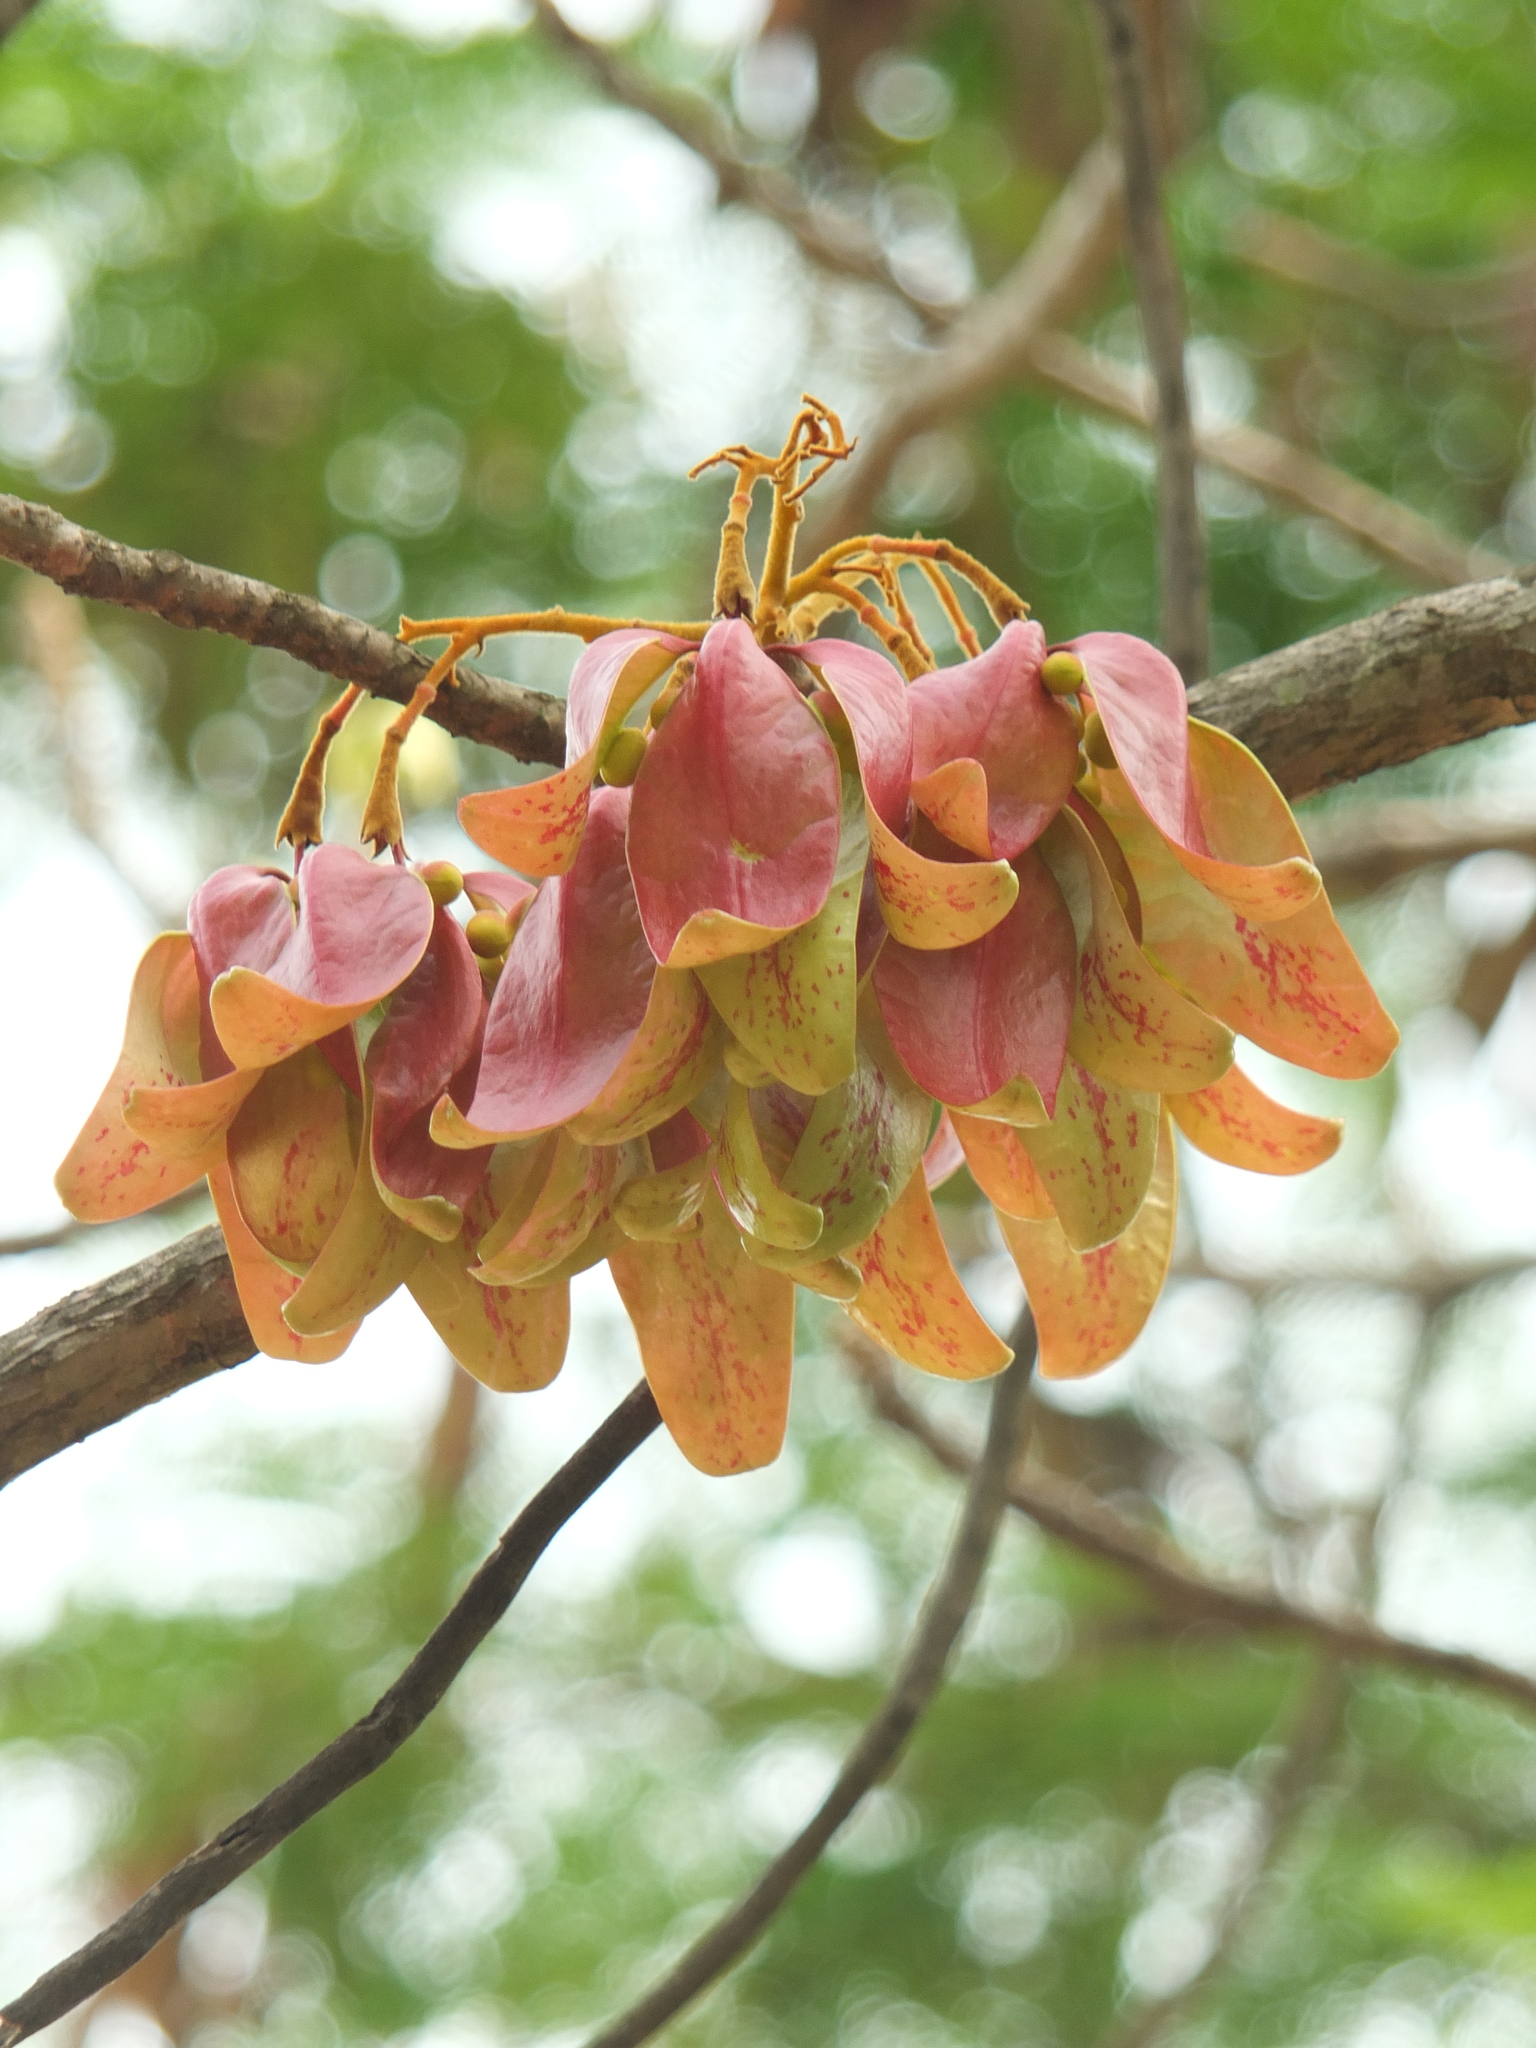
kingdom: Plantae
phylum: Tracheophyta
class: Magnoliopsida
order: Malvales
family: Malvaceae
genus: Firmiana
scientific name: Firmiana colorata
